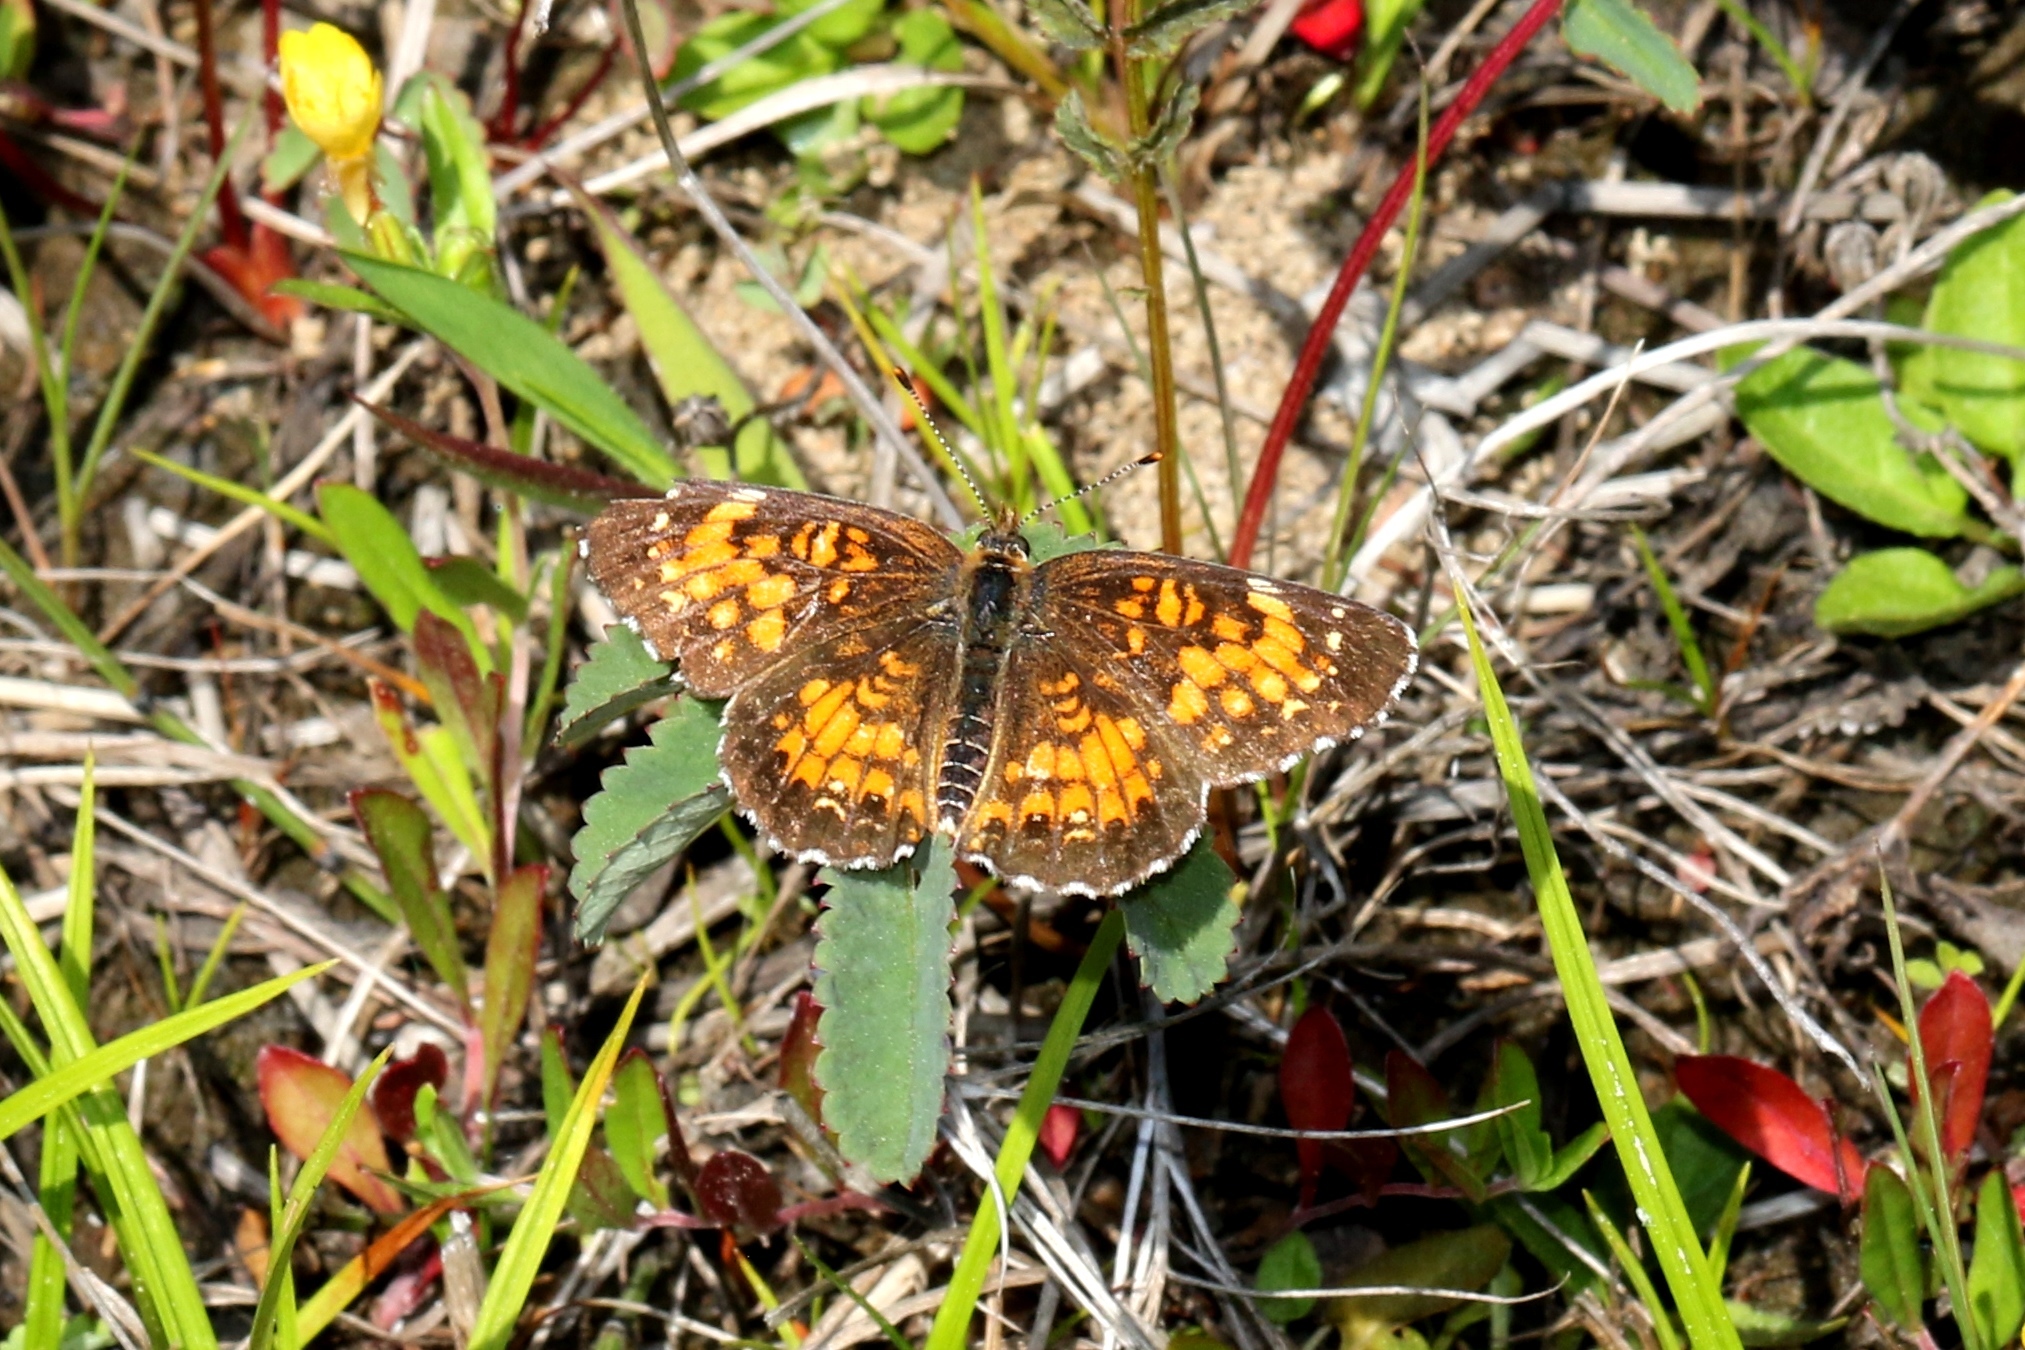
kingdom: Animalia
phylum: Arthropoda
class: Insecta
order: Lepidoptera
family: Nymphalidae
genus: Chlosyne
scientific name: Chlosyne harrisii
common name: Harris's checkerspot
